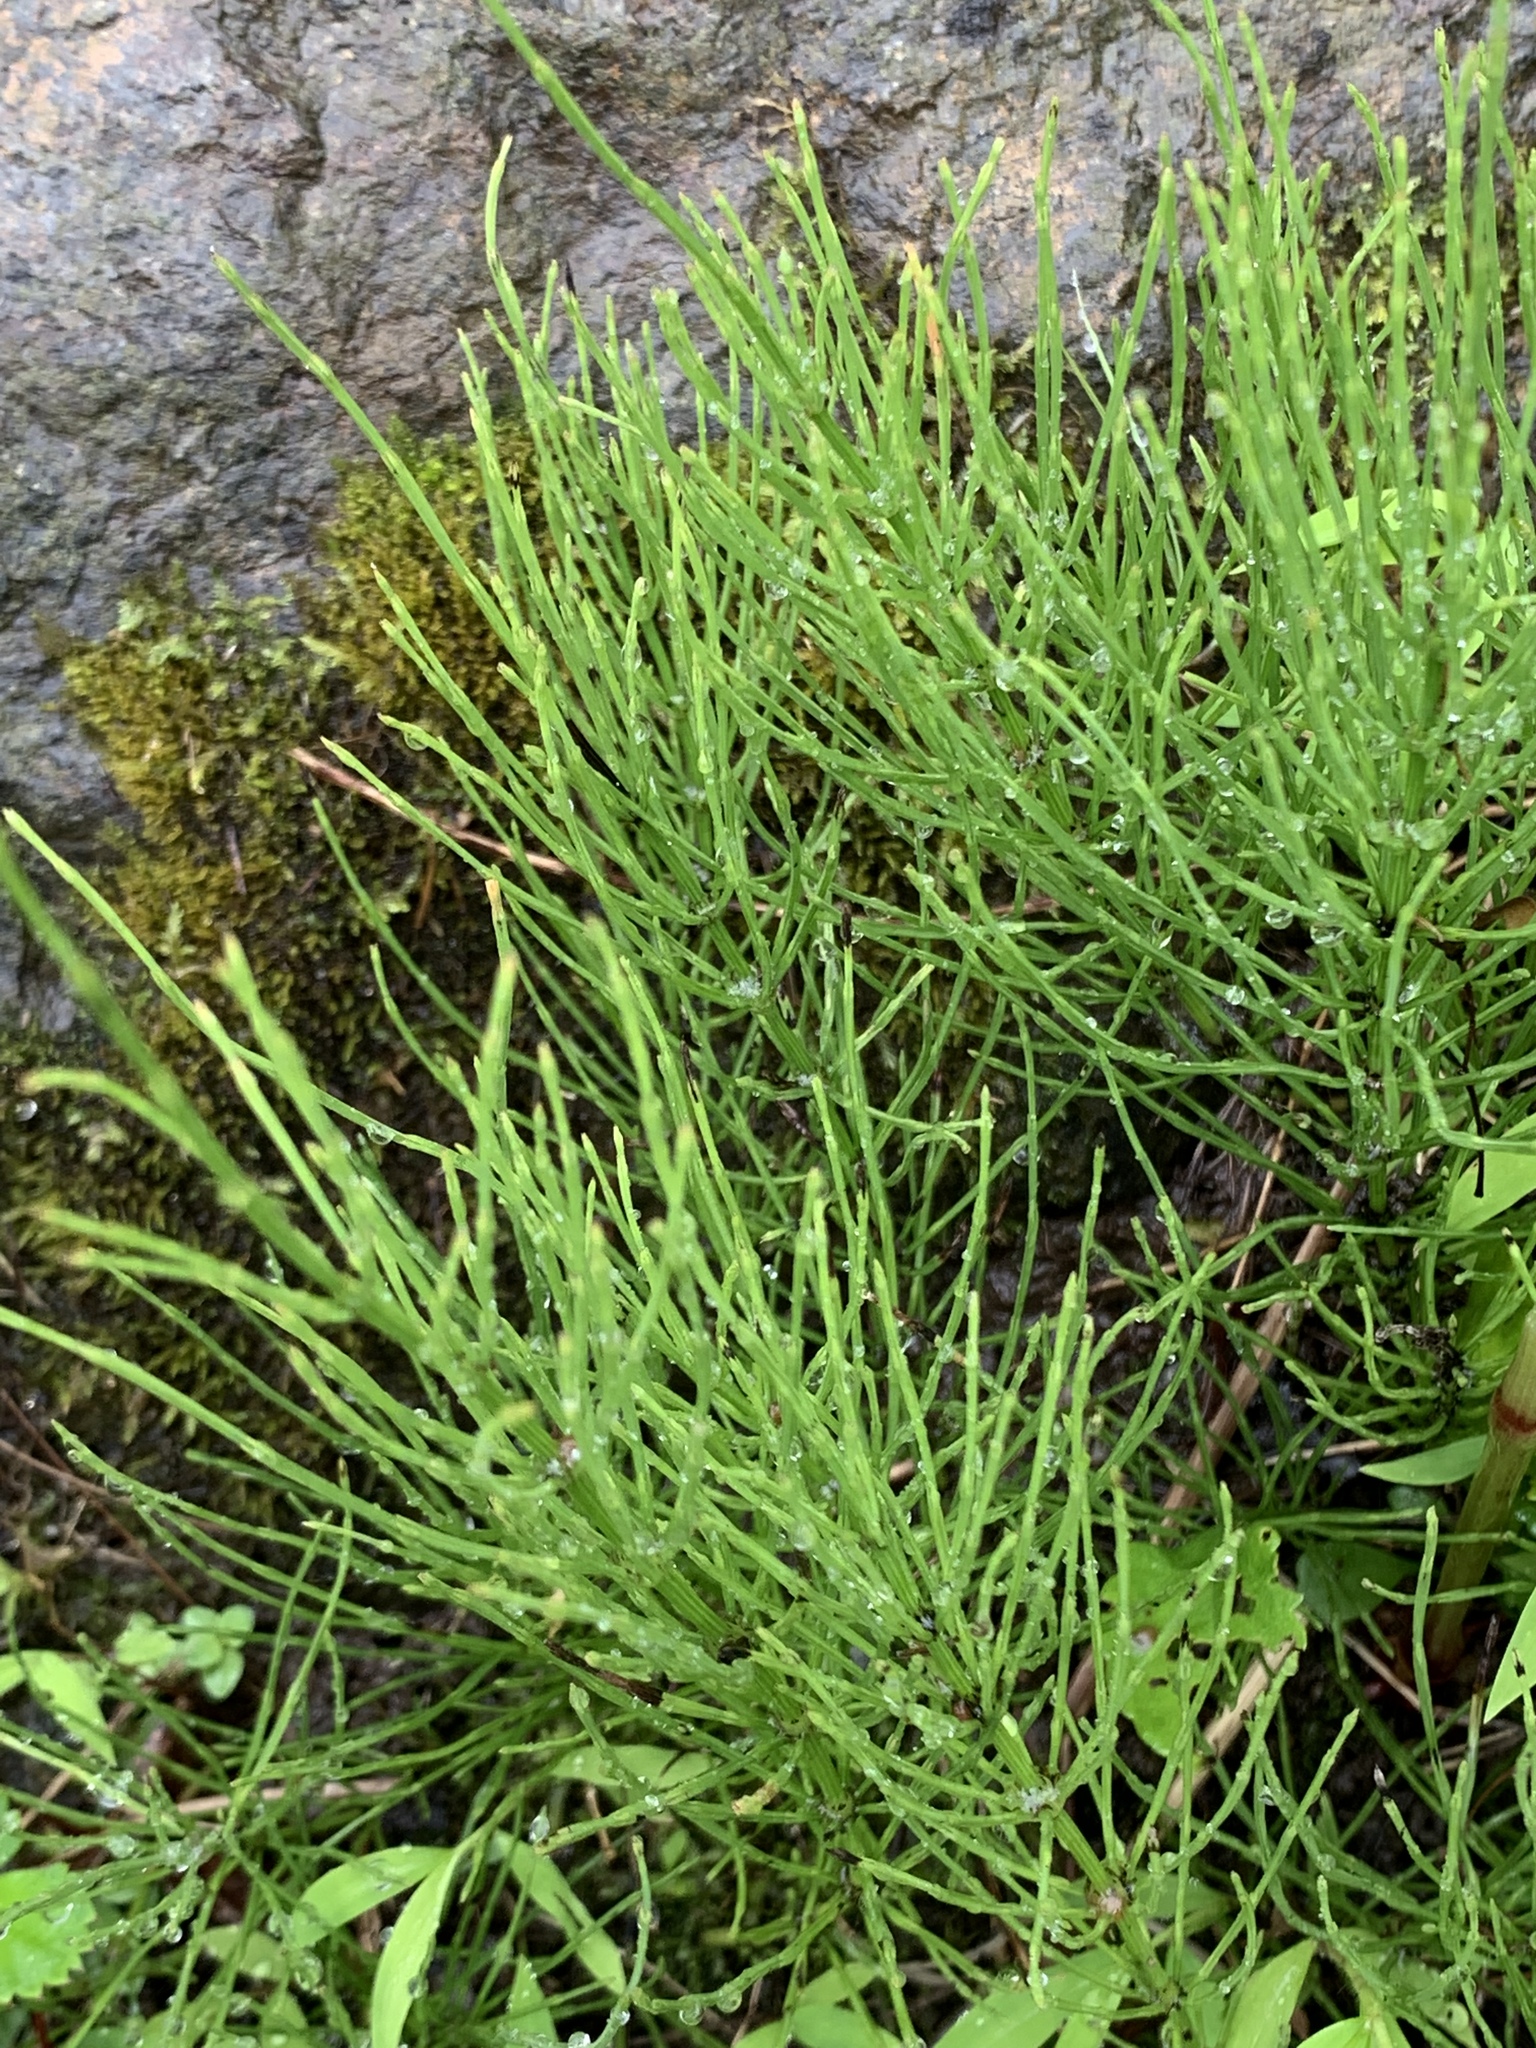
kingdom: Plantae
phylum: Tracheophyta
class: Polypodiopsida
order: Equisetales
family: Equisetaceae
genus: Equisetum
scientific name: Equisetum arvense
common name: Field horsetail
